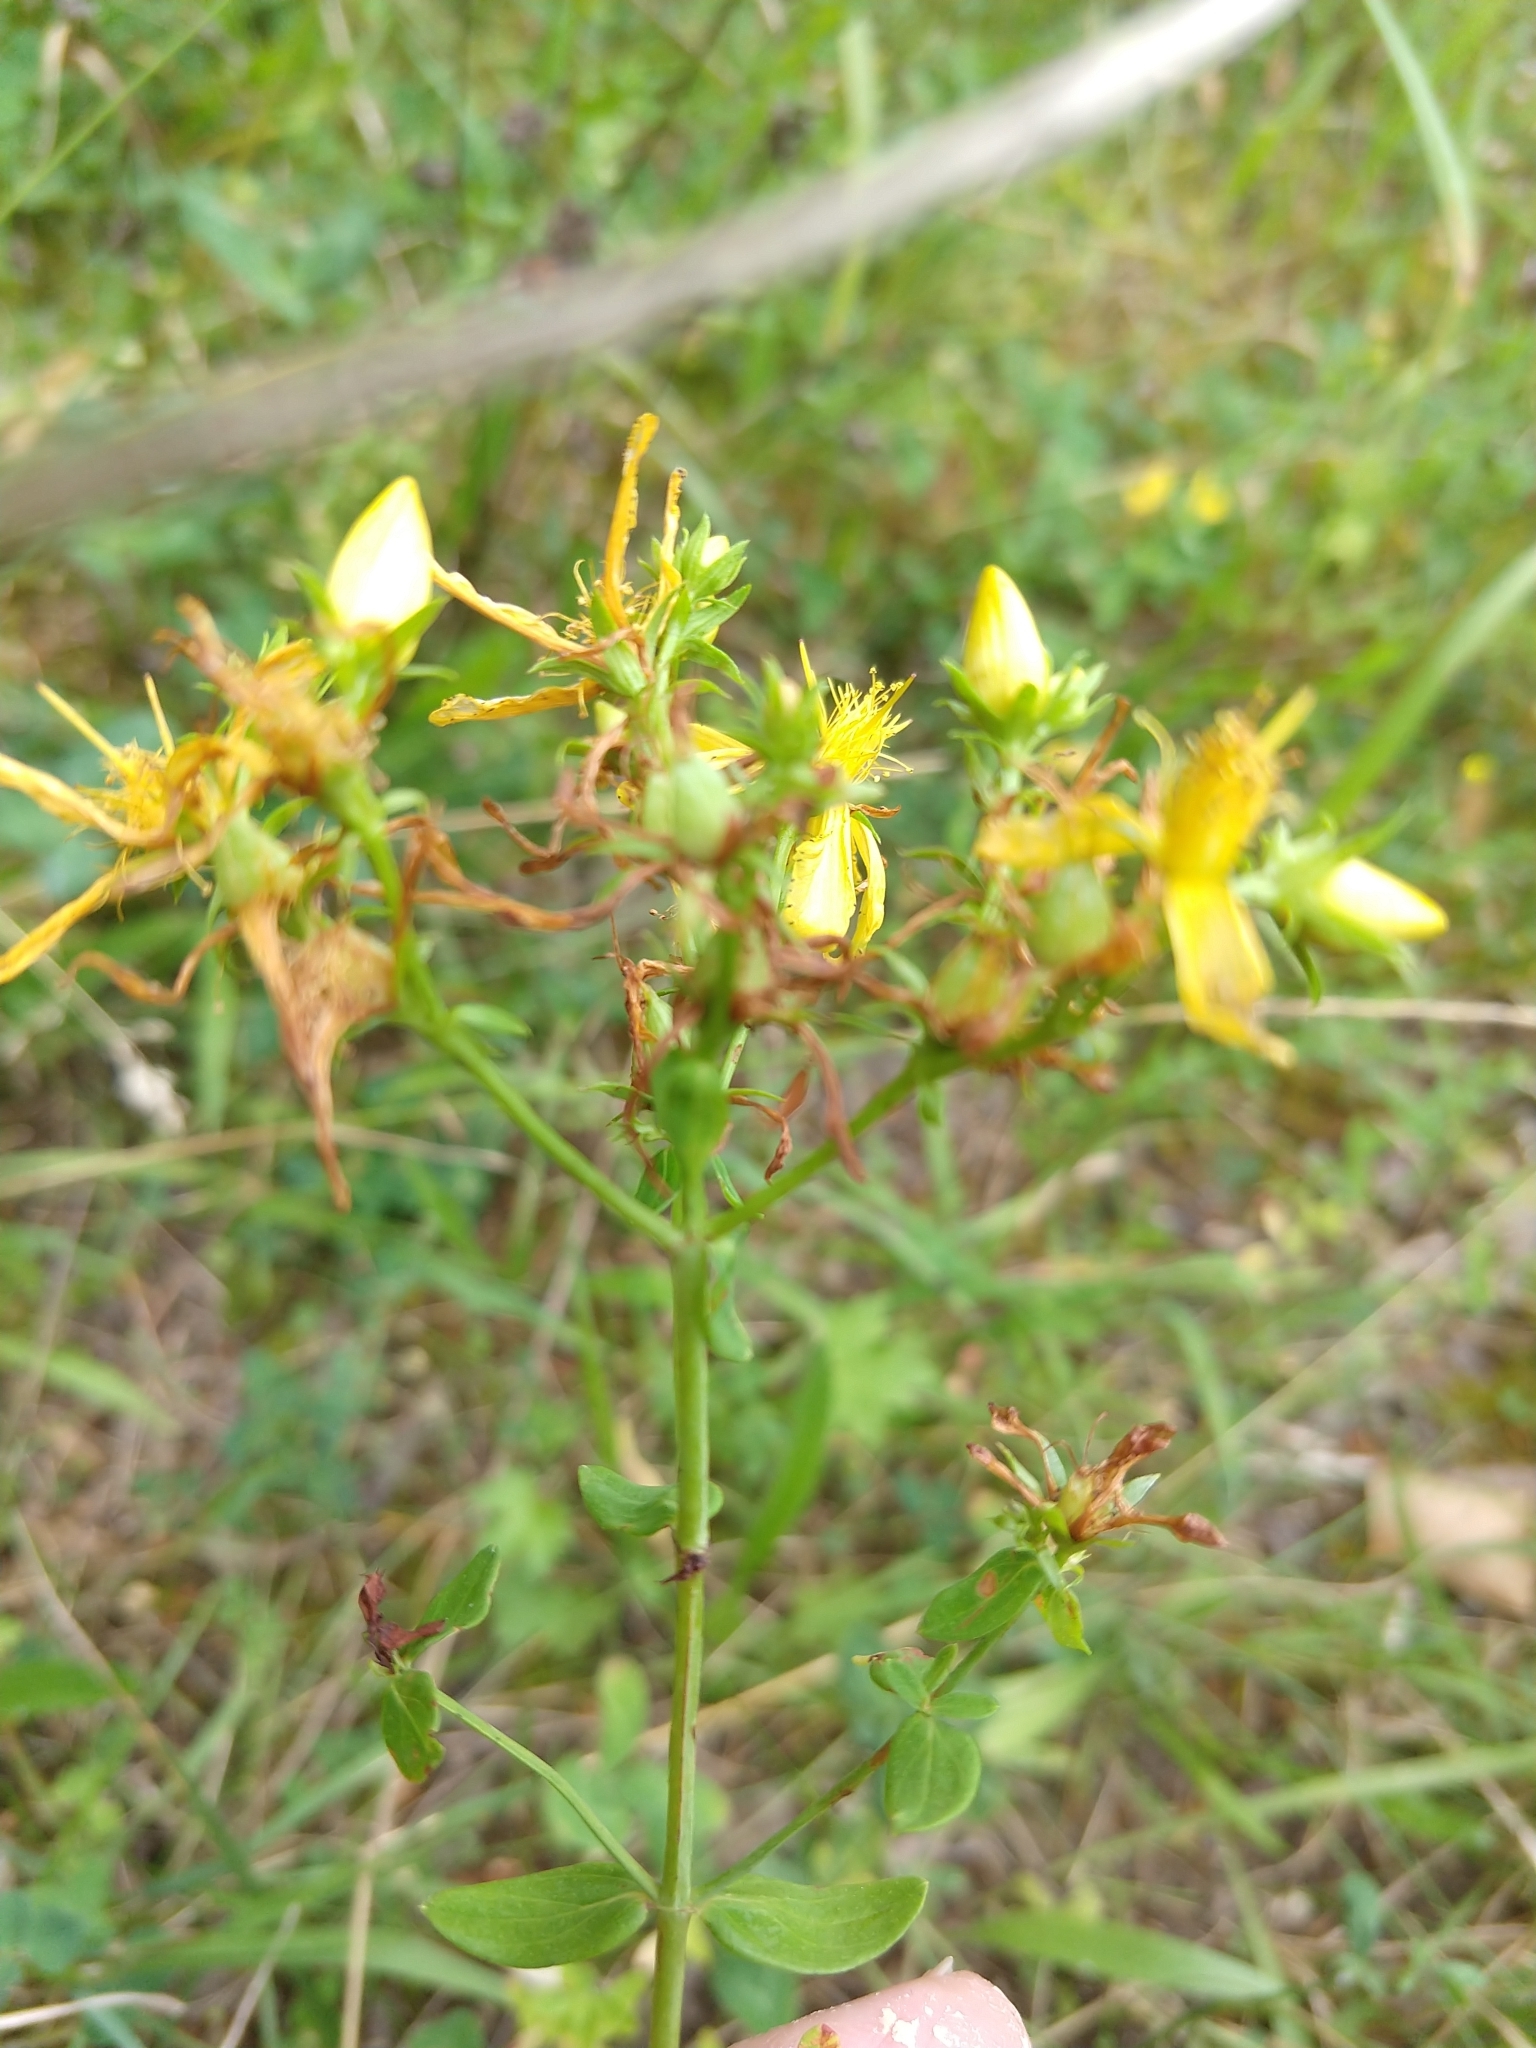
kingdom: Plantae
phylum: Tracheophyta
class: Magnoliopsida
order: Malpighiales
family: Hypericaceae
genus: Hypericum
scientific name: Hypericum perforatum
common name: Common st. johnswort
